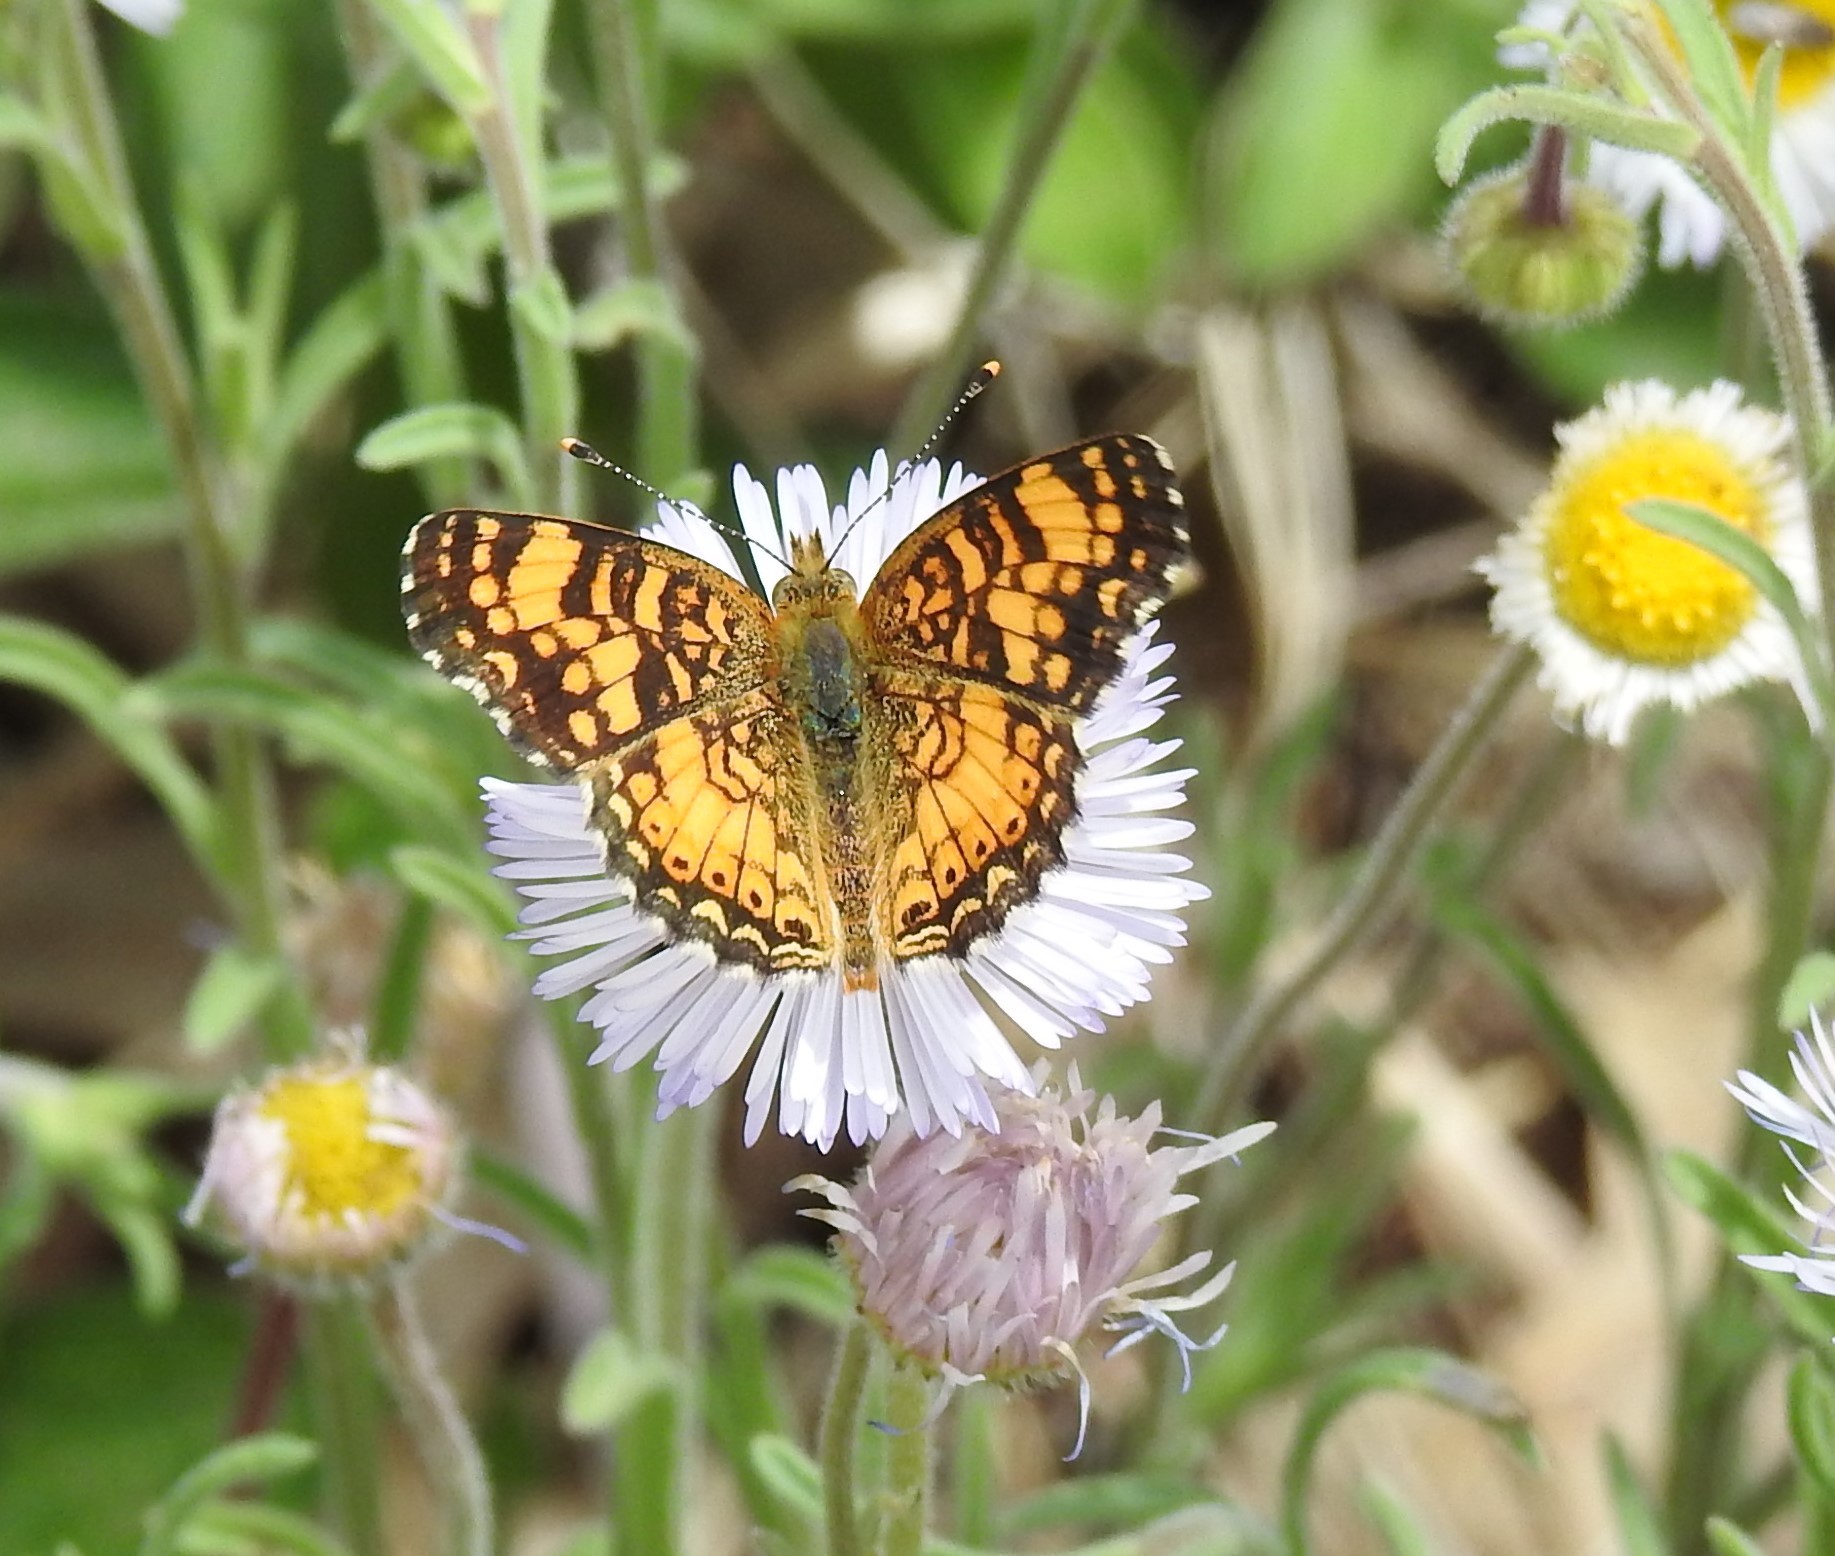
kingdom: Animalia
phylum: Arthropoda
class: Insecta
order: Lepidoptera
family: Nymphalidae
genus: Eresia
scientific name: Eresia aveyrona
